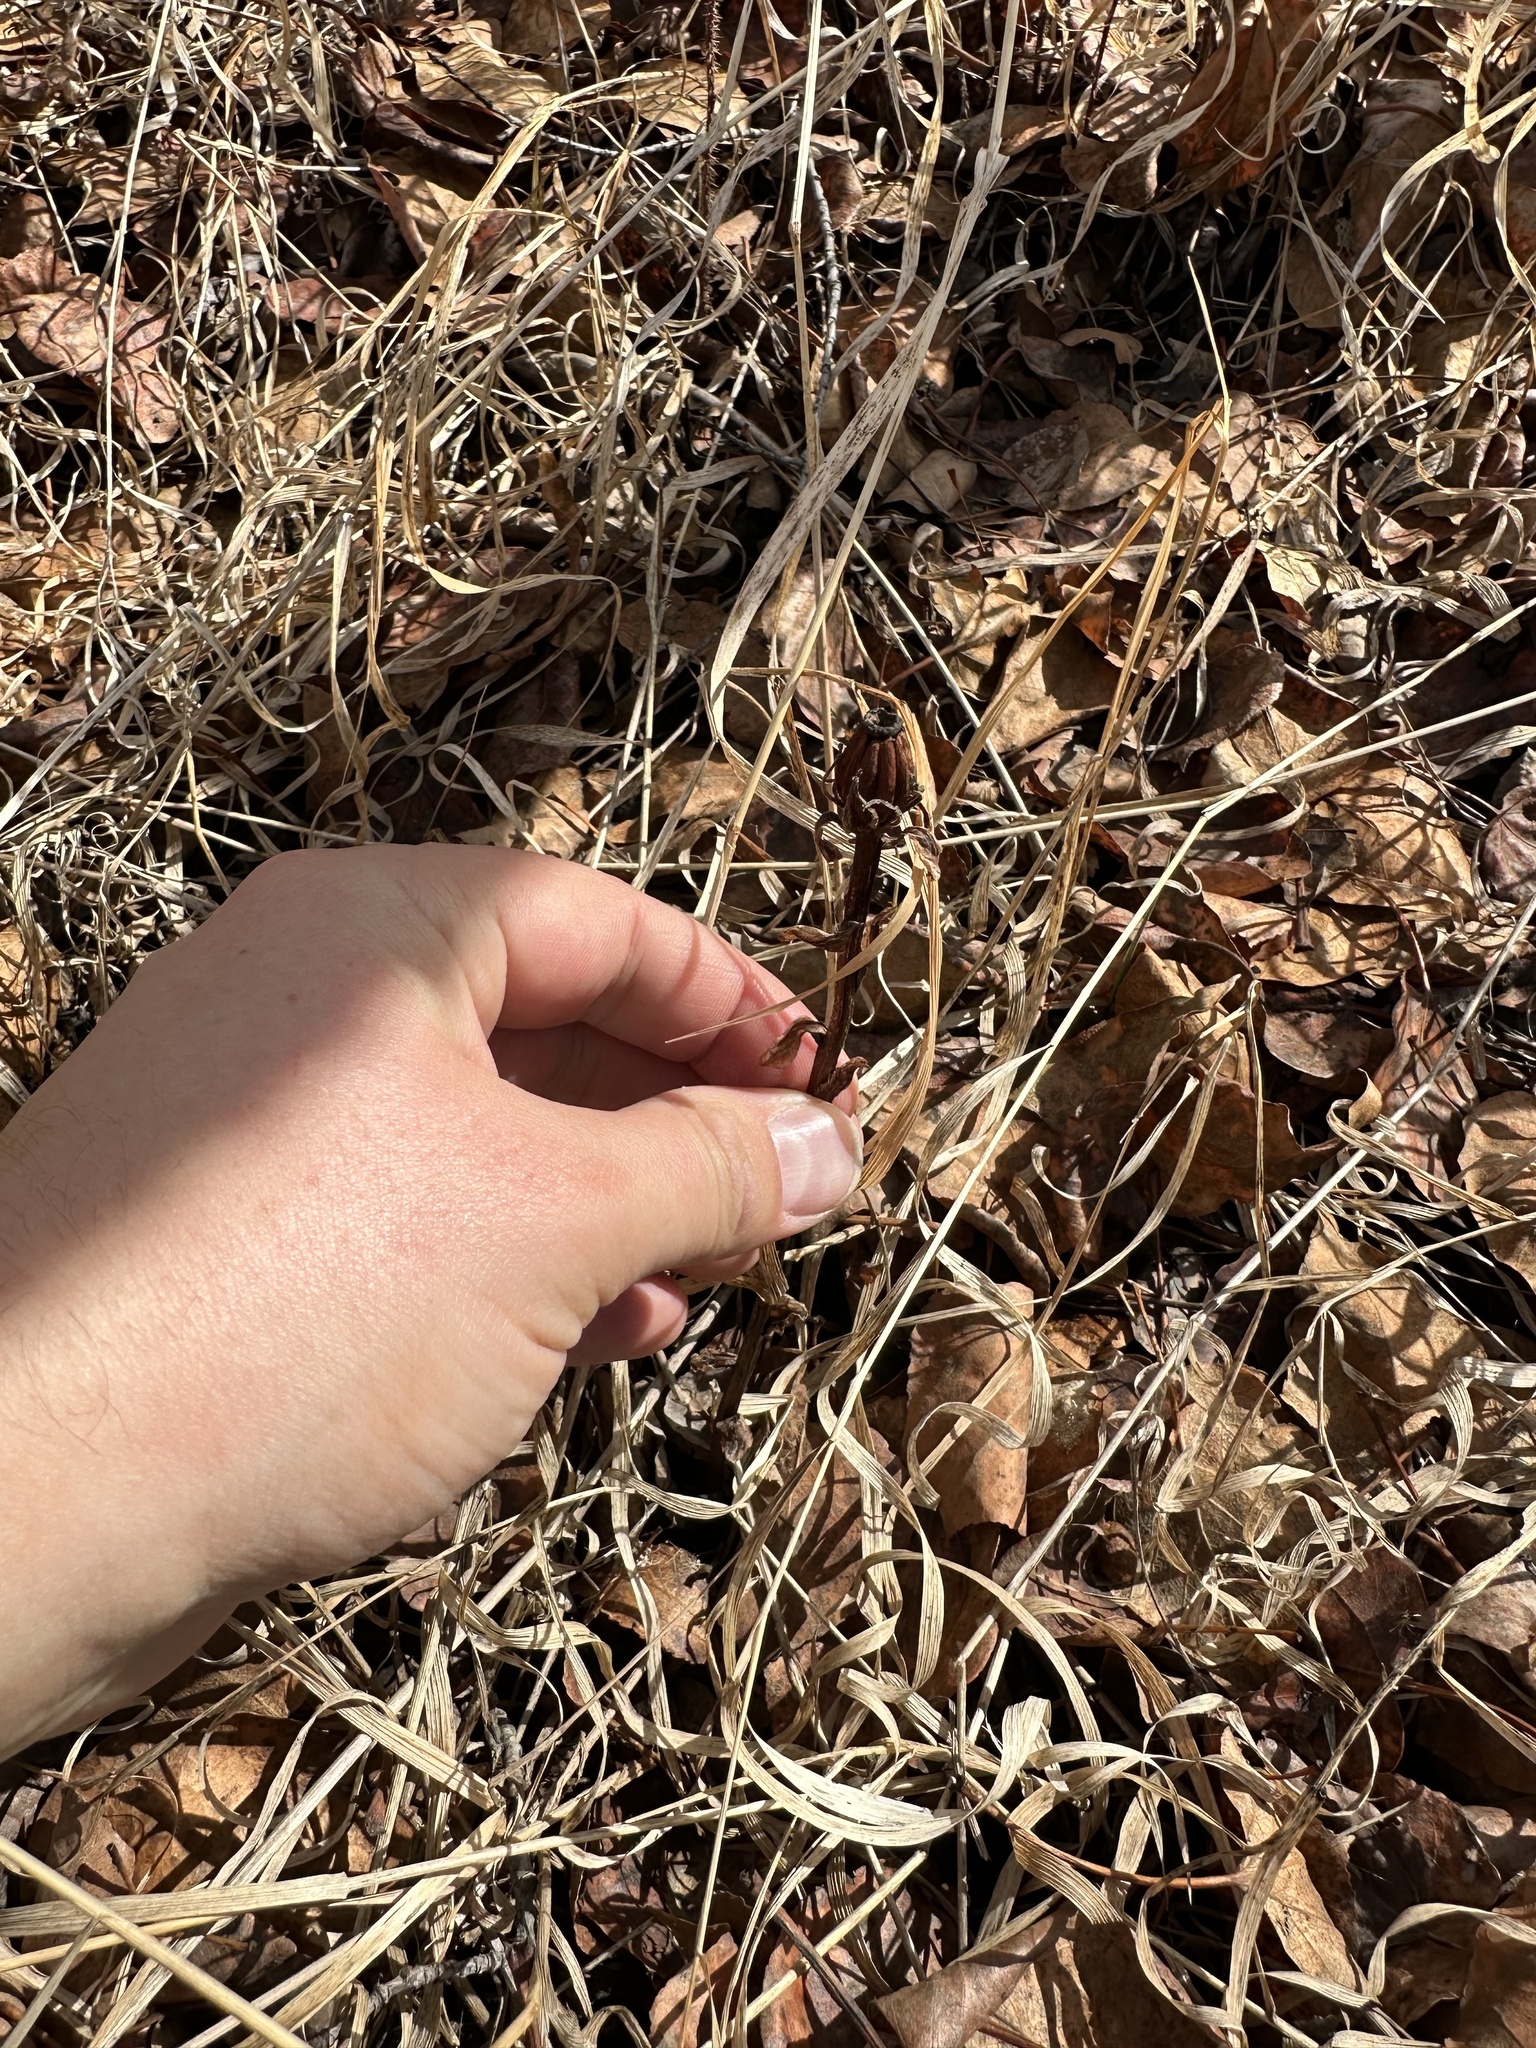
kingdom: Plantae
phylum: Tracheophyta
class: Magnoliopsida
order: Ericales
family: Ericaceae
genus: Monotropa
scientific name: Monotropa uniflora
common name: Convulsion root
